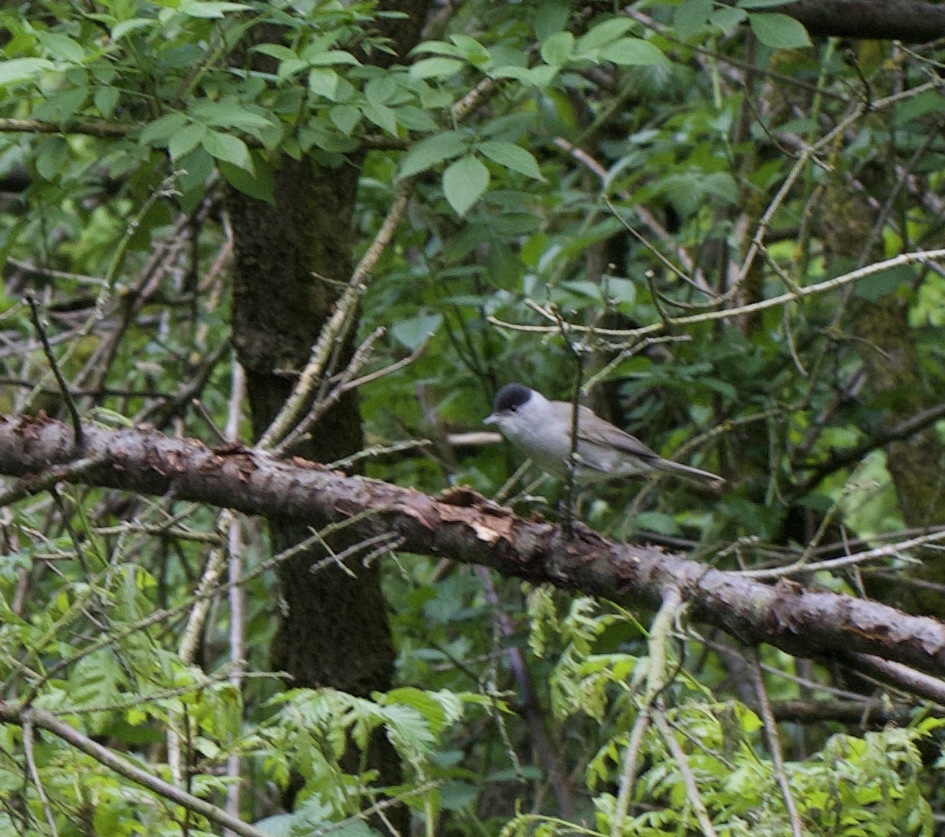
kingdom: Animalia
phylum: Chordata
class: Aves
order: Passeriformes
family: Sylviidae
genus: Sylvia
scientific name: Sylvia atricapilla
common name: Eurasian blackcap
